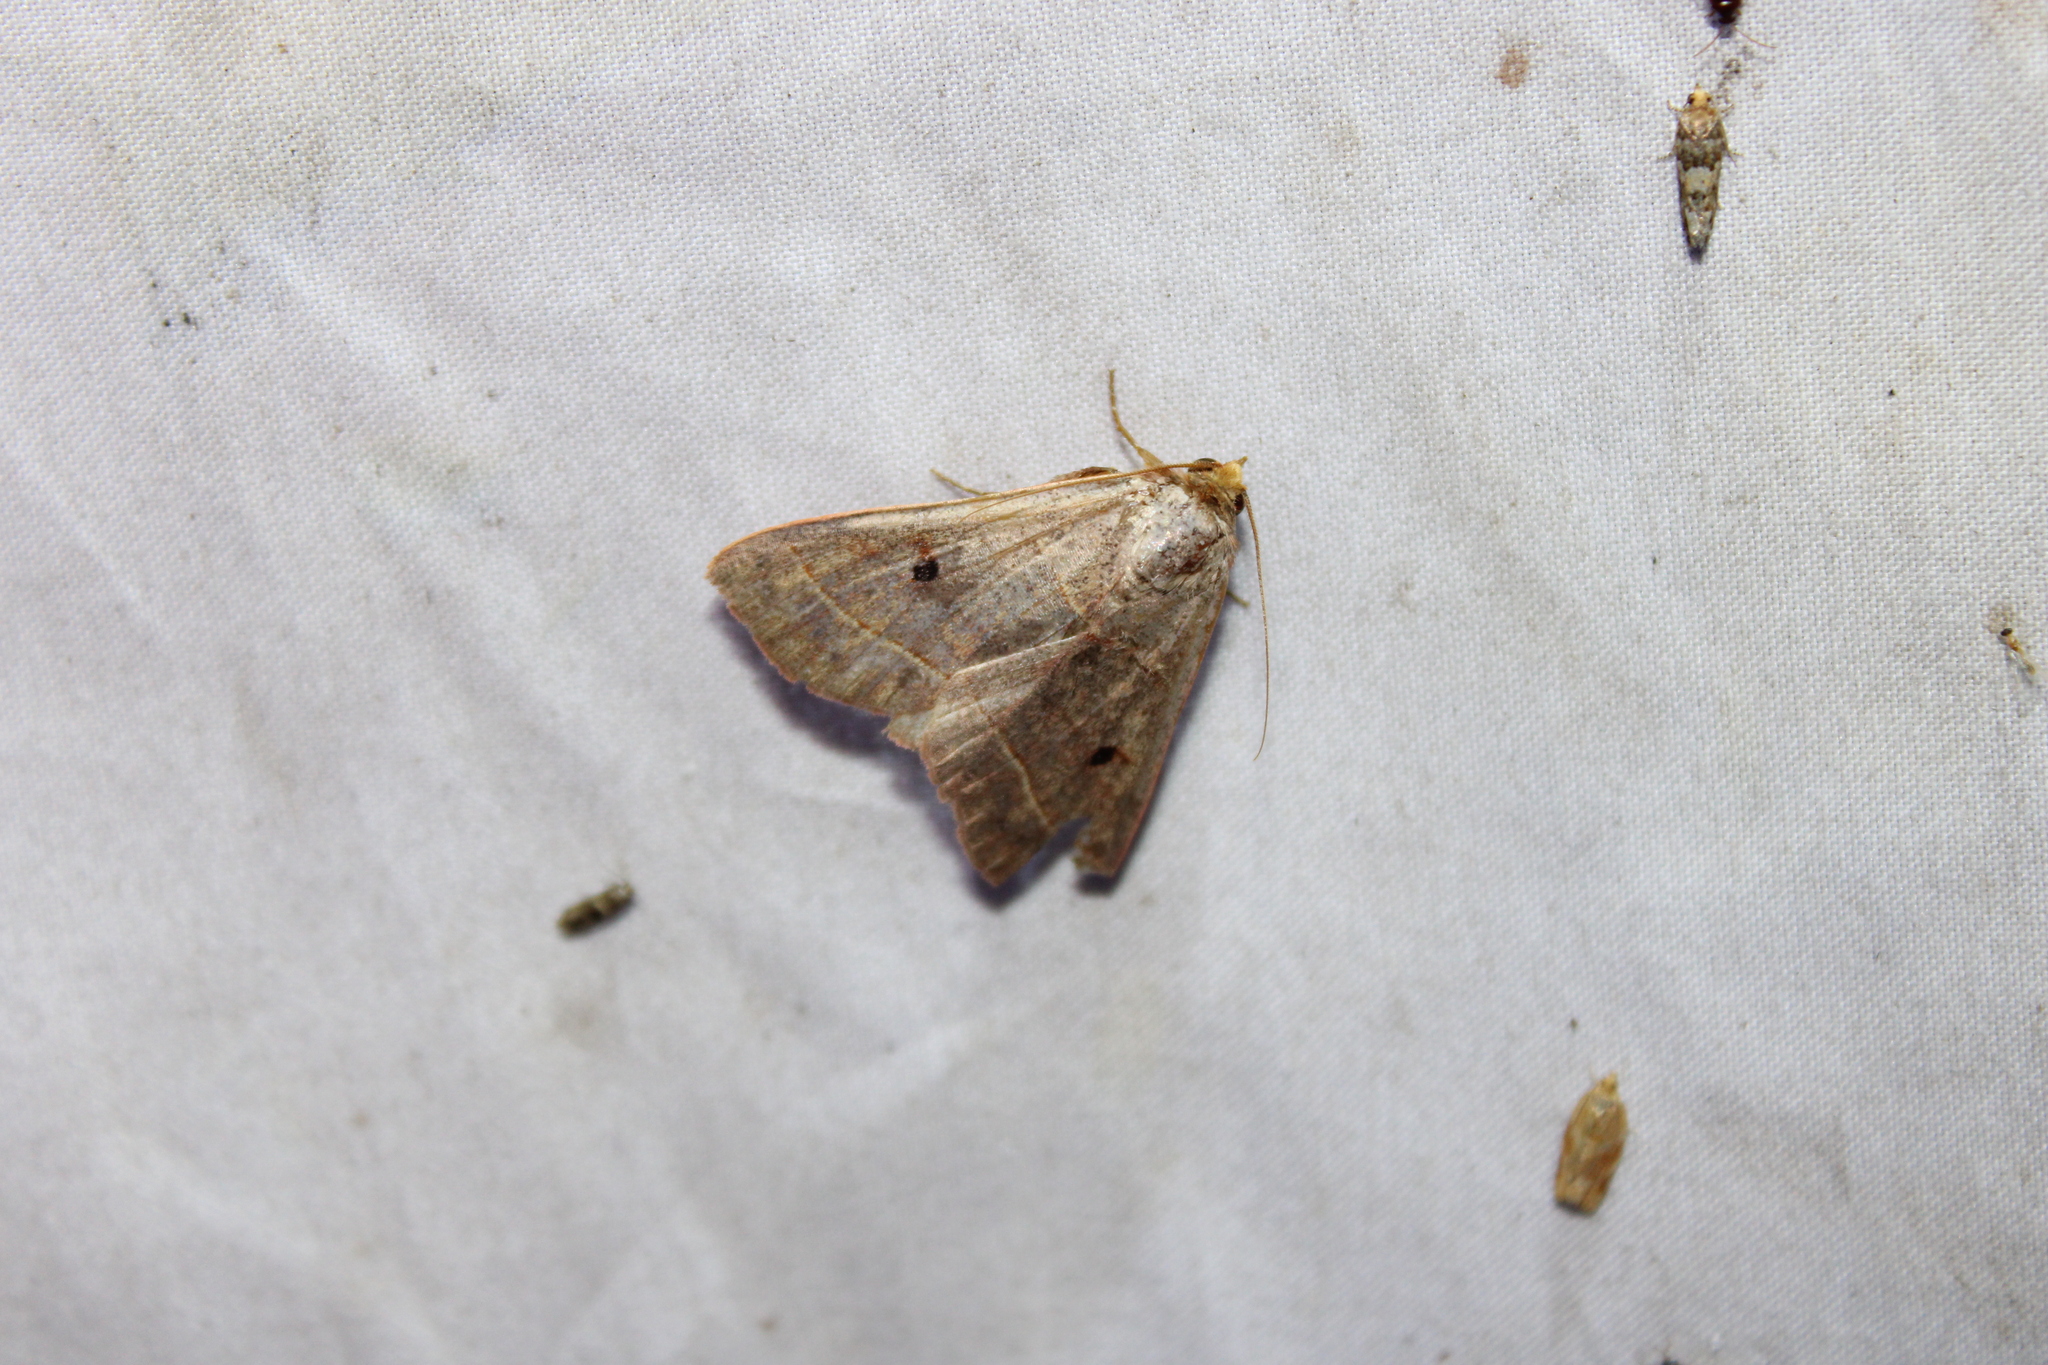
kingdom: Animalia
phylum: Arthropoda
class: Insecta
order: Lepidoptera
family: Erebidae
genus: Panopoda
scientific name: Panopoda rufimargo
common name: Red-lined panopoda moth
